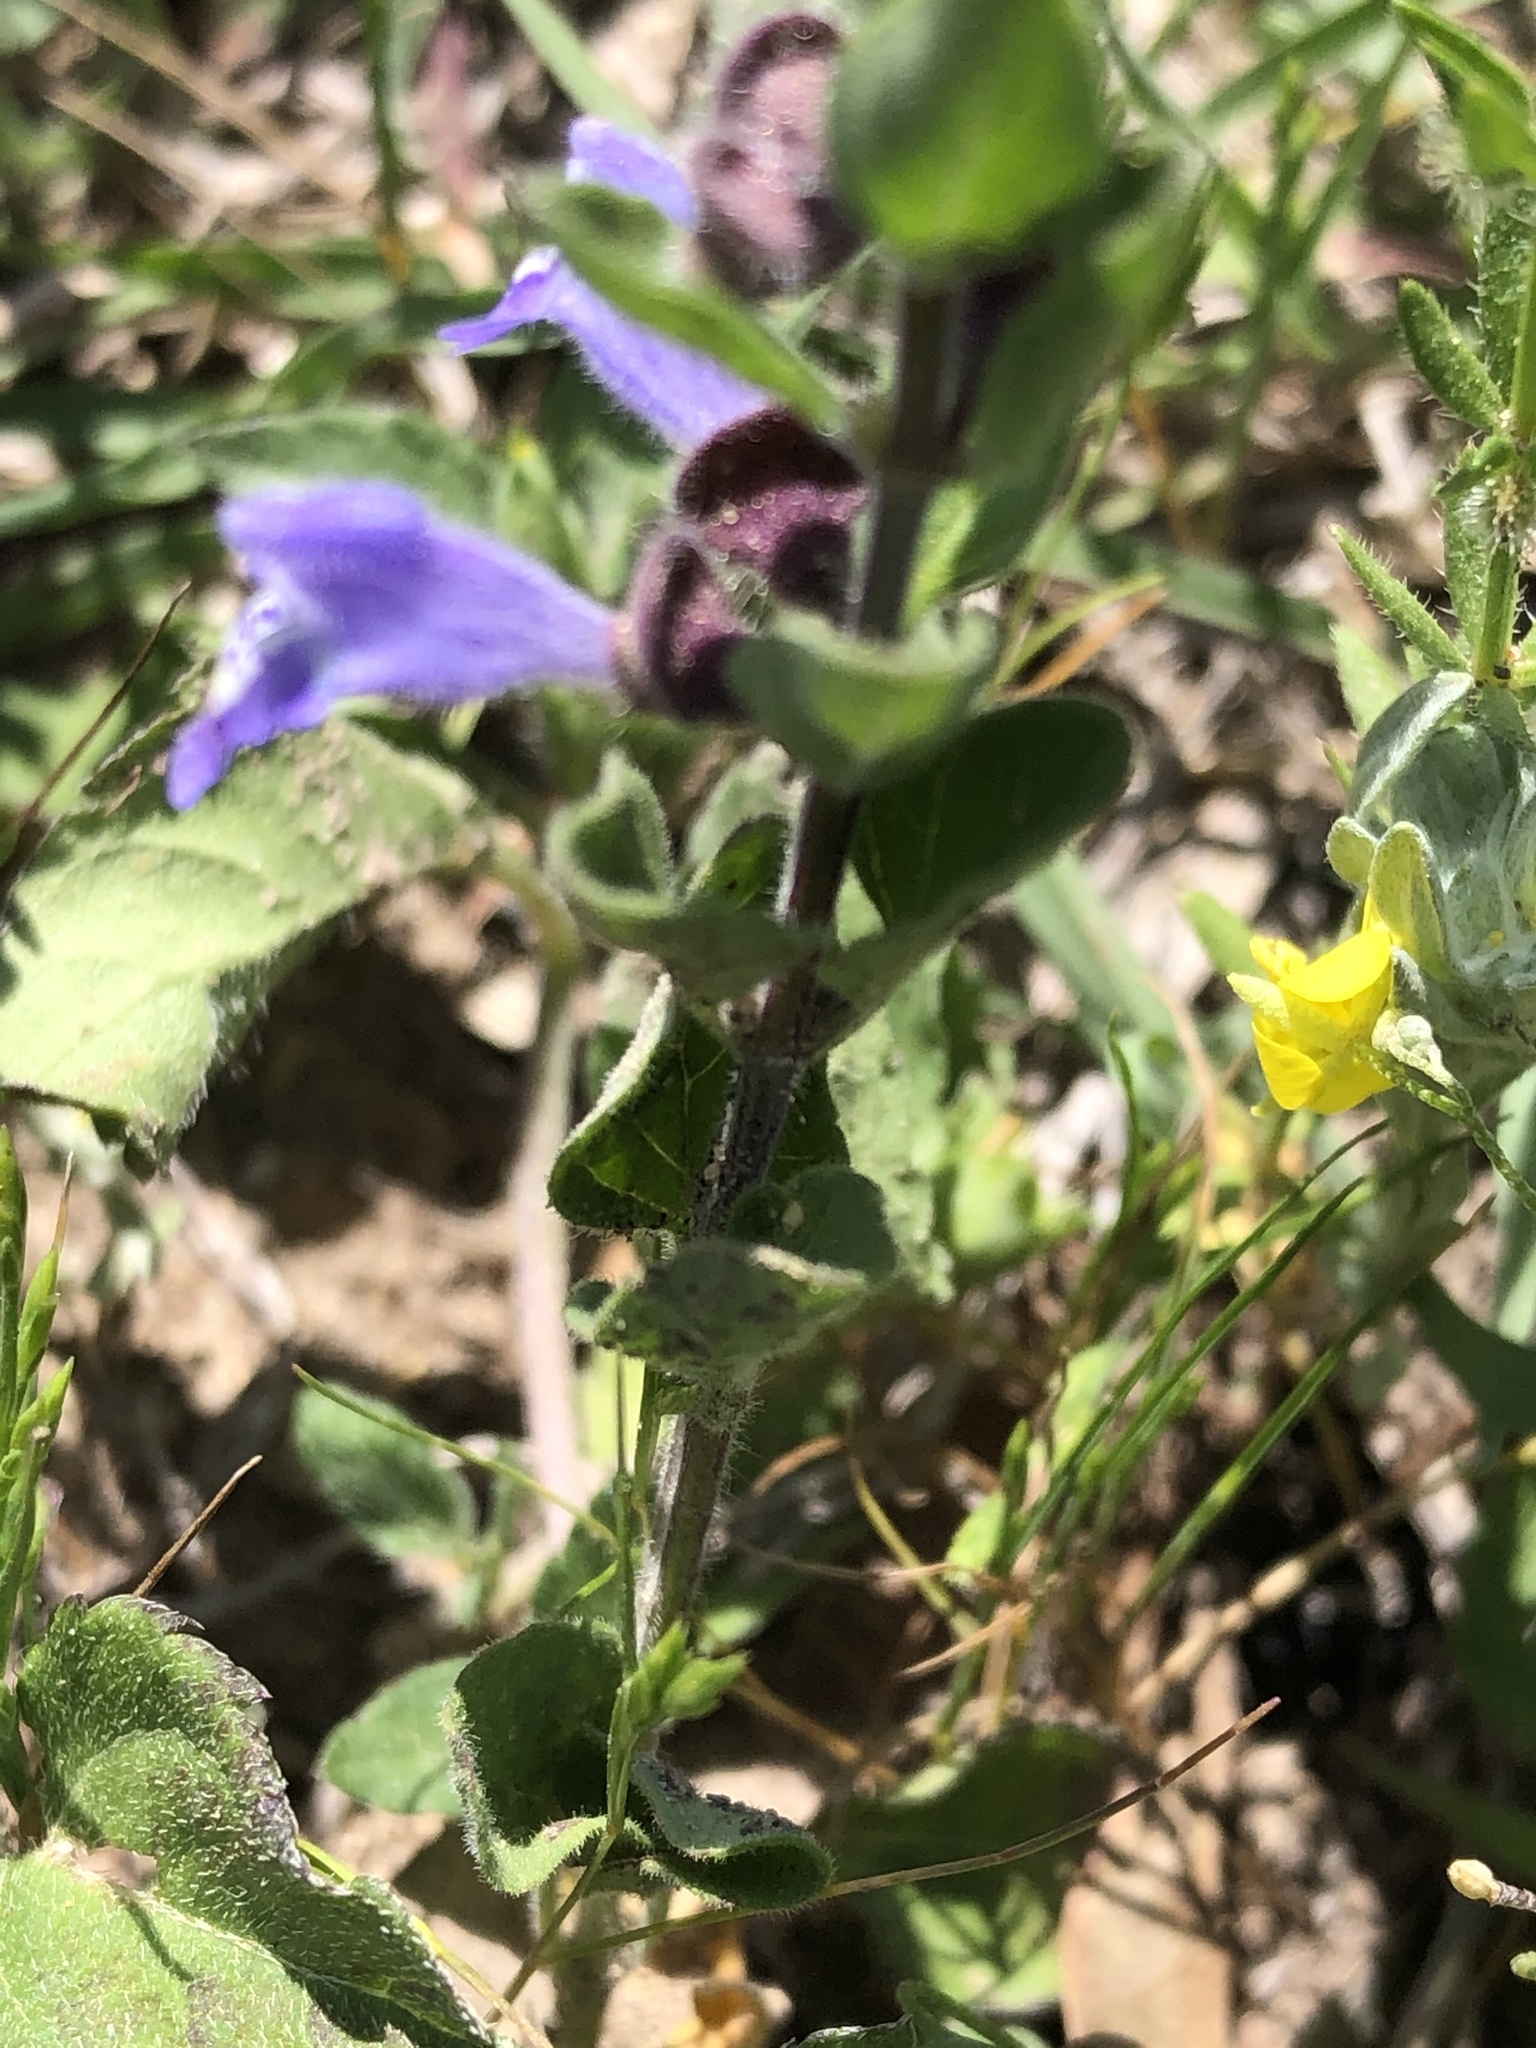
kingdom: Plantae
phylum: Tracheophyta
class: Magnoliopsida
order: Lamiales
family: Lamiaceae
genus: Scutellaria
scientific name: Scutellaria drummondii
